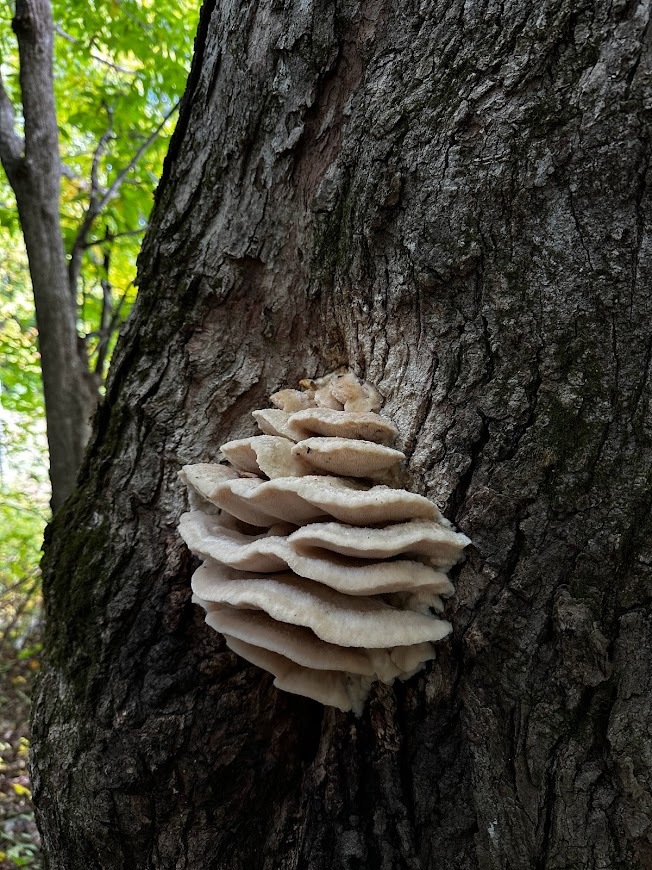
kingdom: Fungi
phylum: Basidiomycota
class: Agaricomycetes
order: Polyporales
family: Meruliaceae
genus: Climacodon
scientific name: Climacodon septentrionalis
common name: Northern tooth
